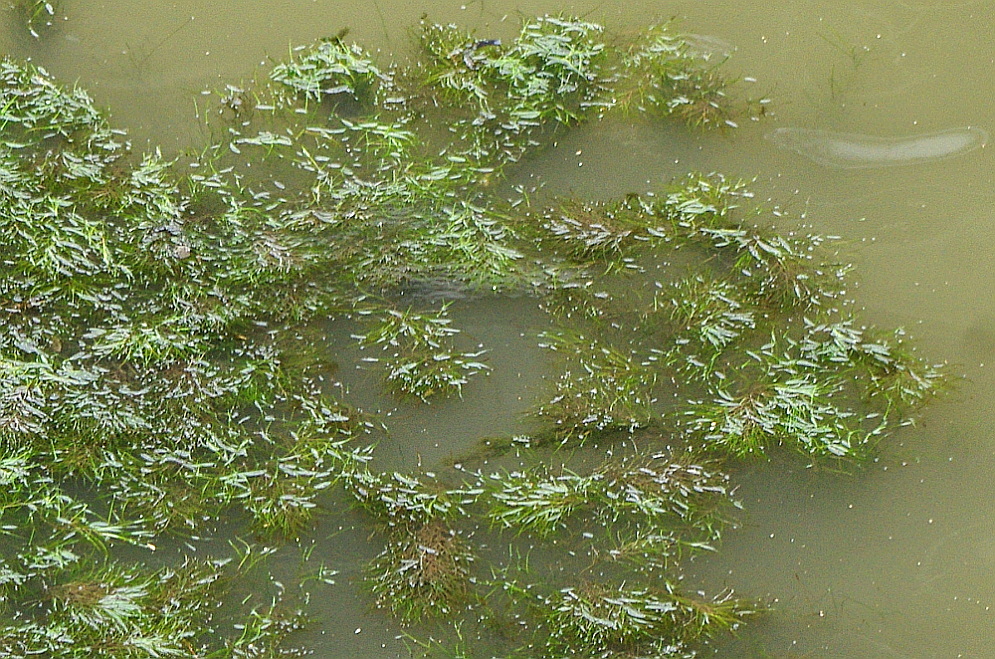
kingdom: Plantae
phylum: Tracheophyta
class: Liliopsida
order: Alismatales
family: Potamogetonaceae
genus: Stuckenia
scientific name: Stuckenia pectinata
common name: Sago pondweed
